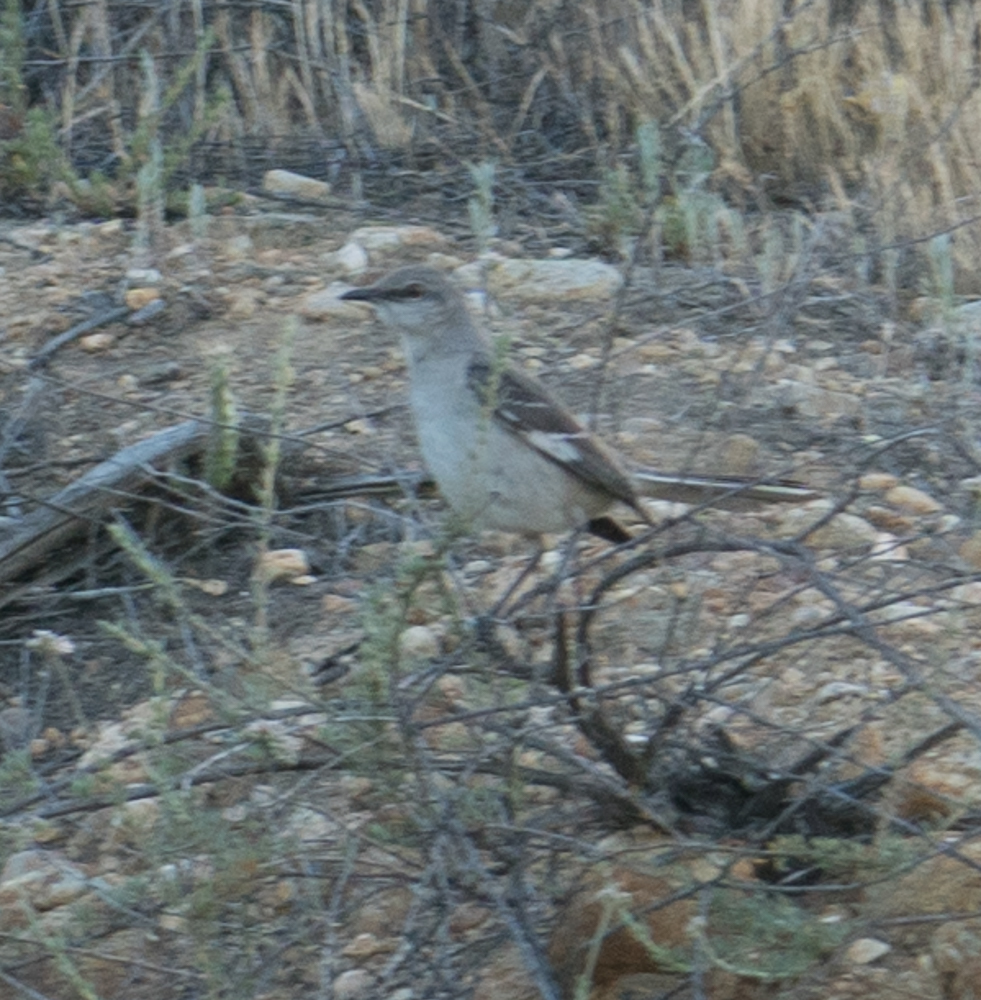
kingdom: Animalia
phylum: Chordata
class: Aves
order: Passeriformes
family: Mimidae
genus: Mimus
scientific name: Mimus polyglottos
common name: Northern mockingbird
